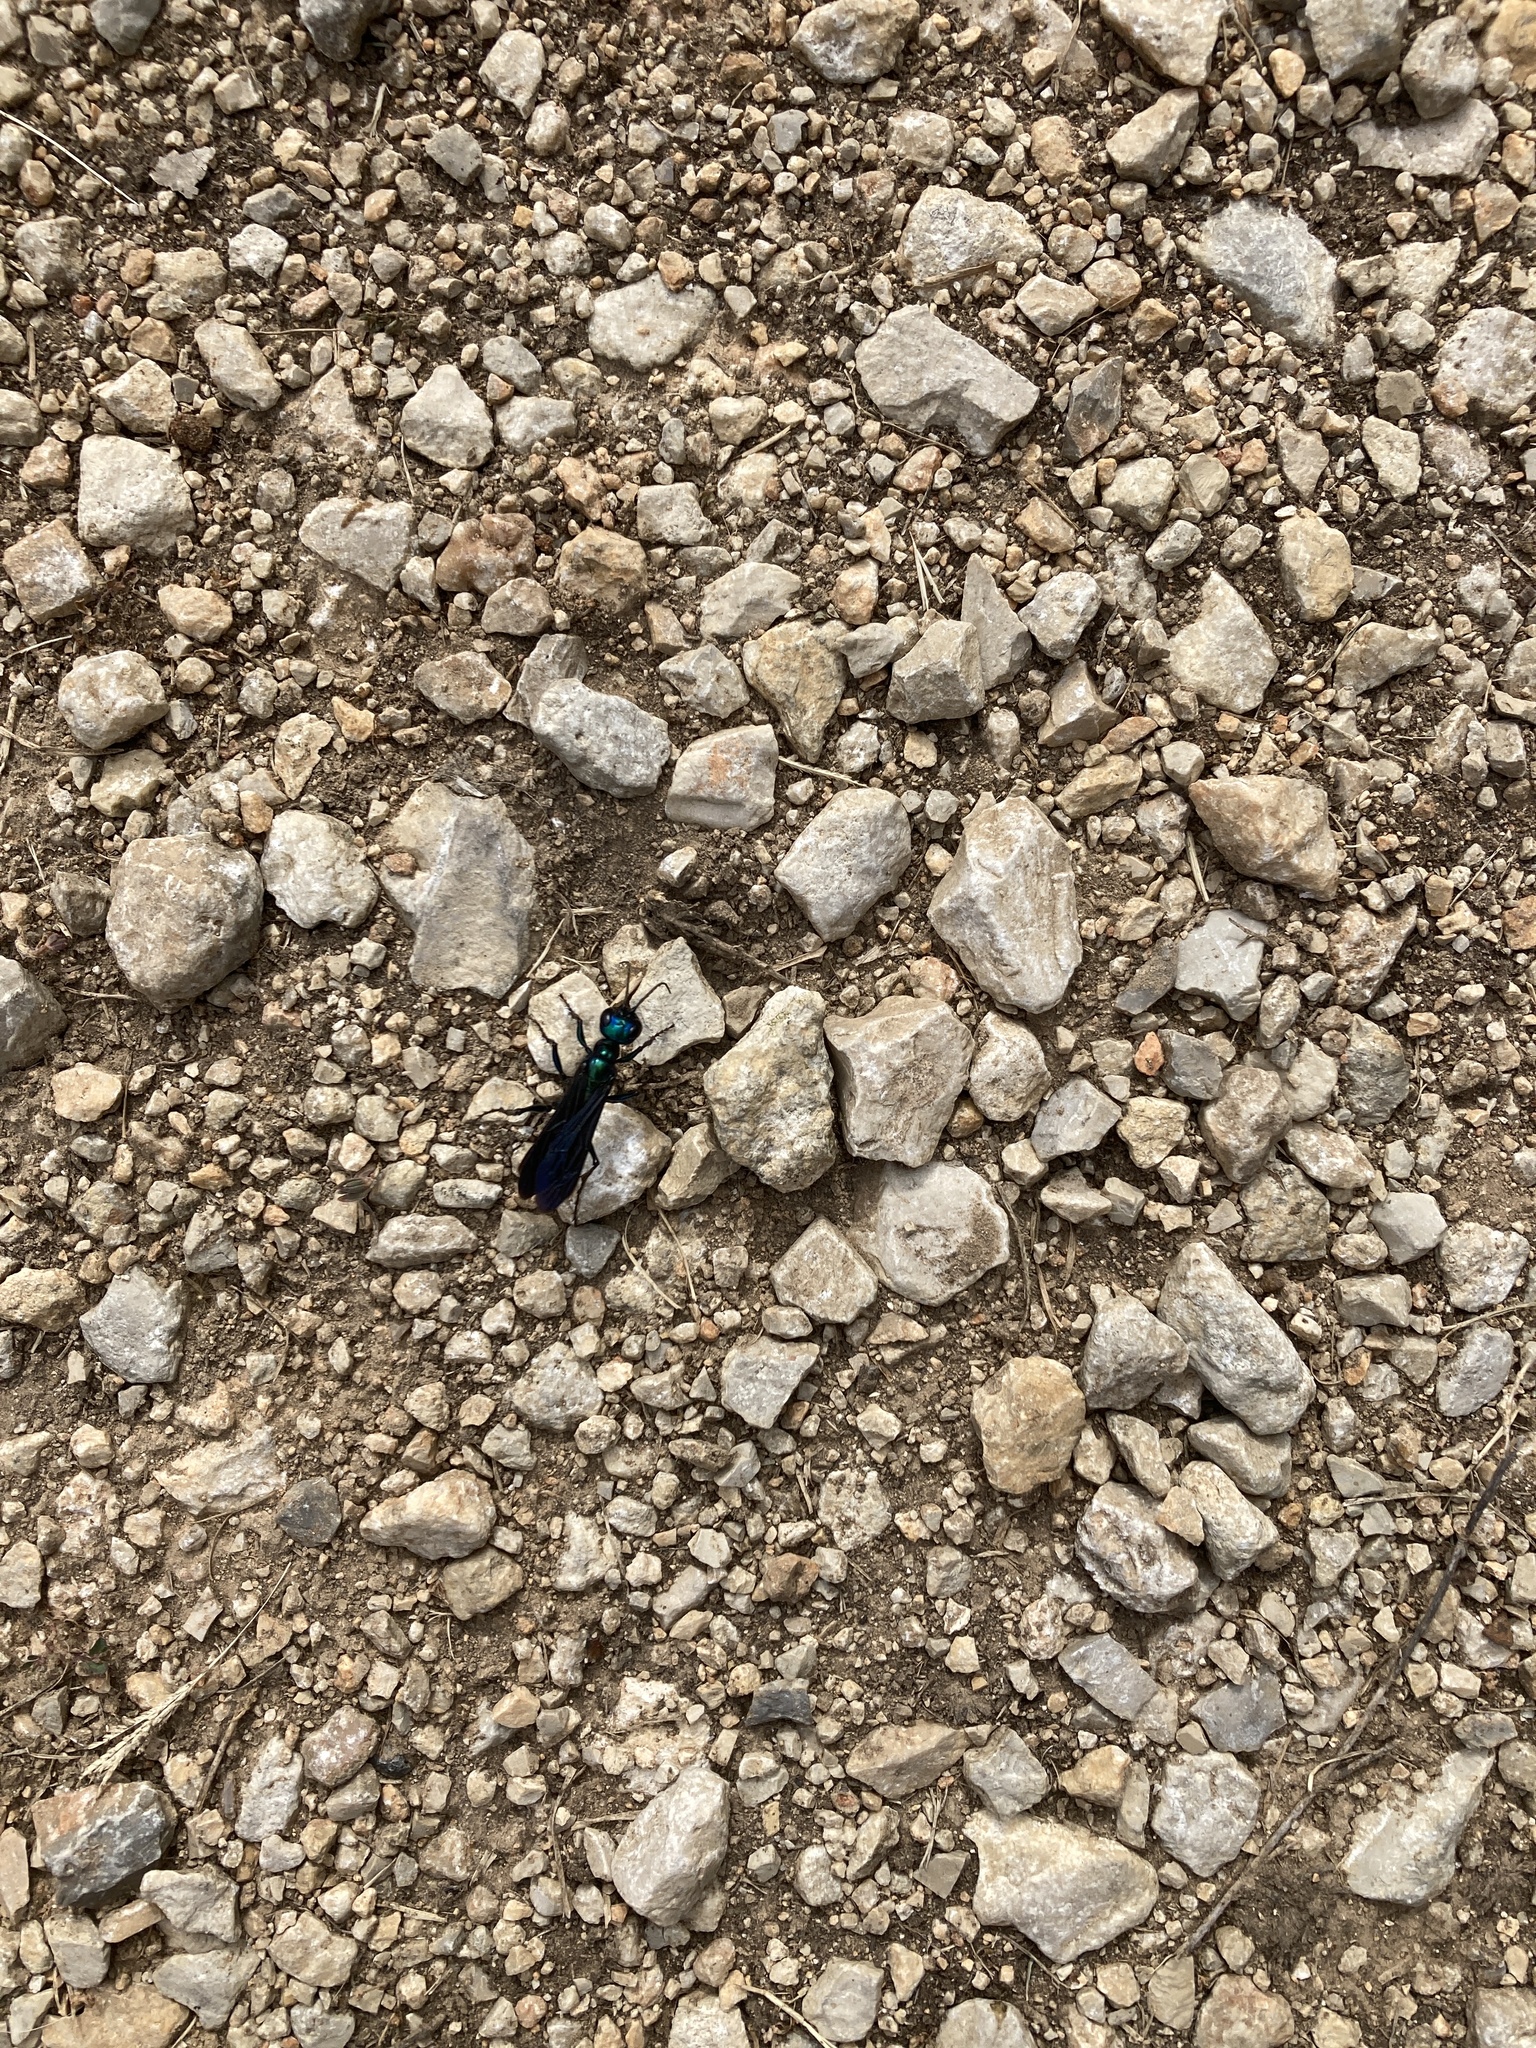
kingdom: Animalia
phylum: Arthropoda
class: Insecta
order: Hymenoptera
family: Sphecidae
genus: Chlorion
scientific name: Chlorion aerarium
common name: Steel-blue cricket hunter
